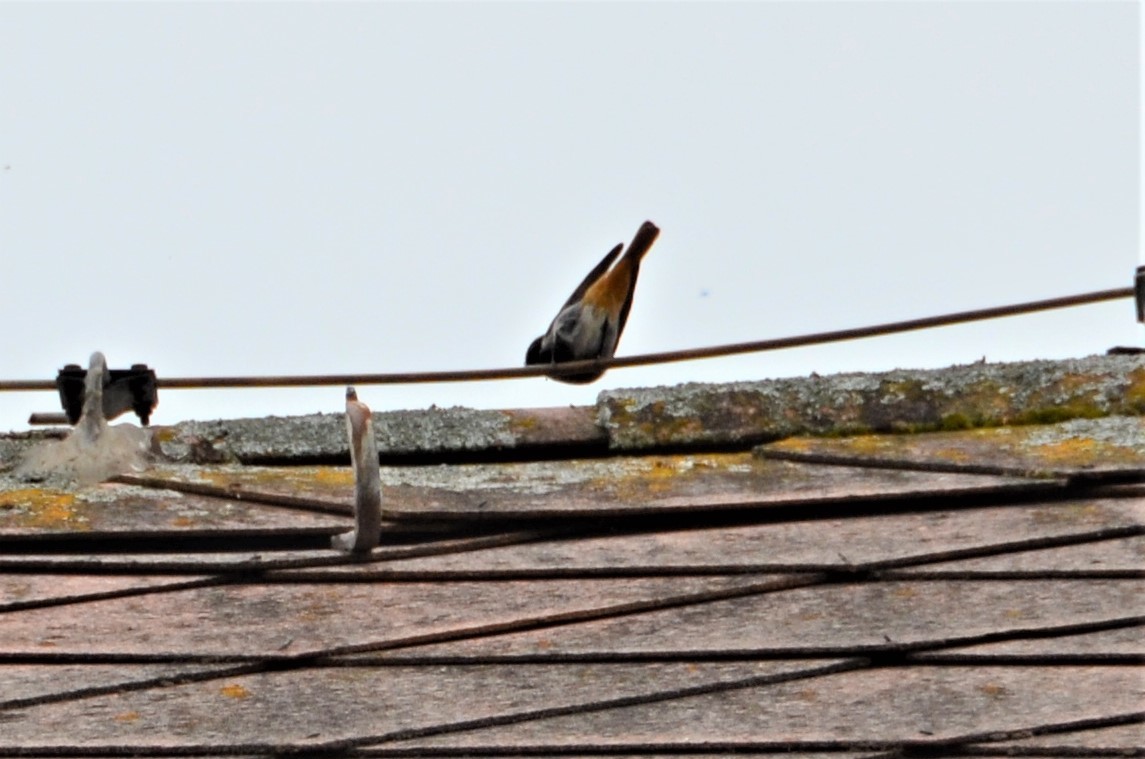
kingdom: Animalia
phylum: Chordata
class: Aves
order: Passeriformes
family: Muscicapidae
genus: Phoenicurus
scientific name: Phoenicurus ochruros
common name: Black redstart
